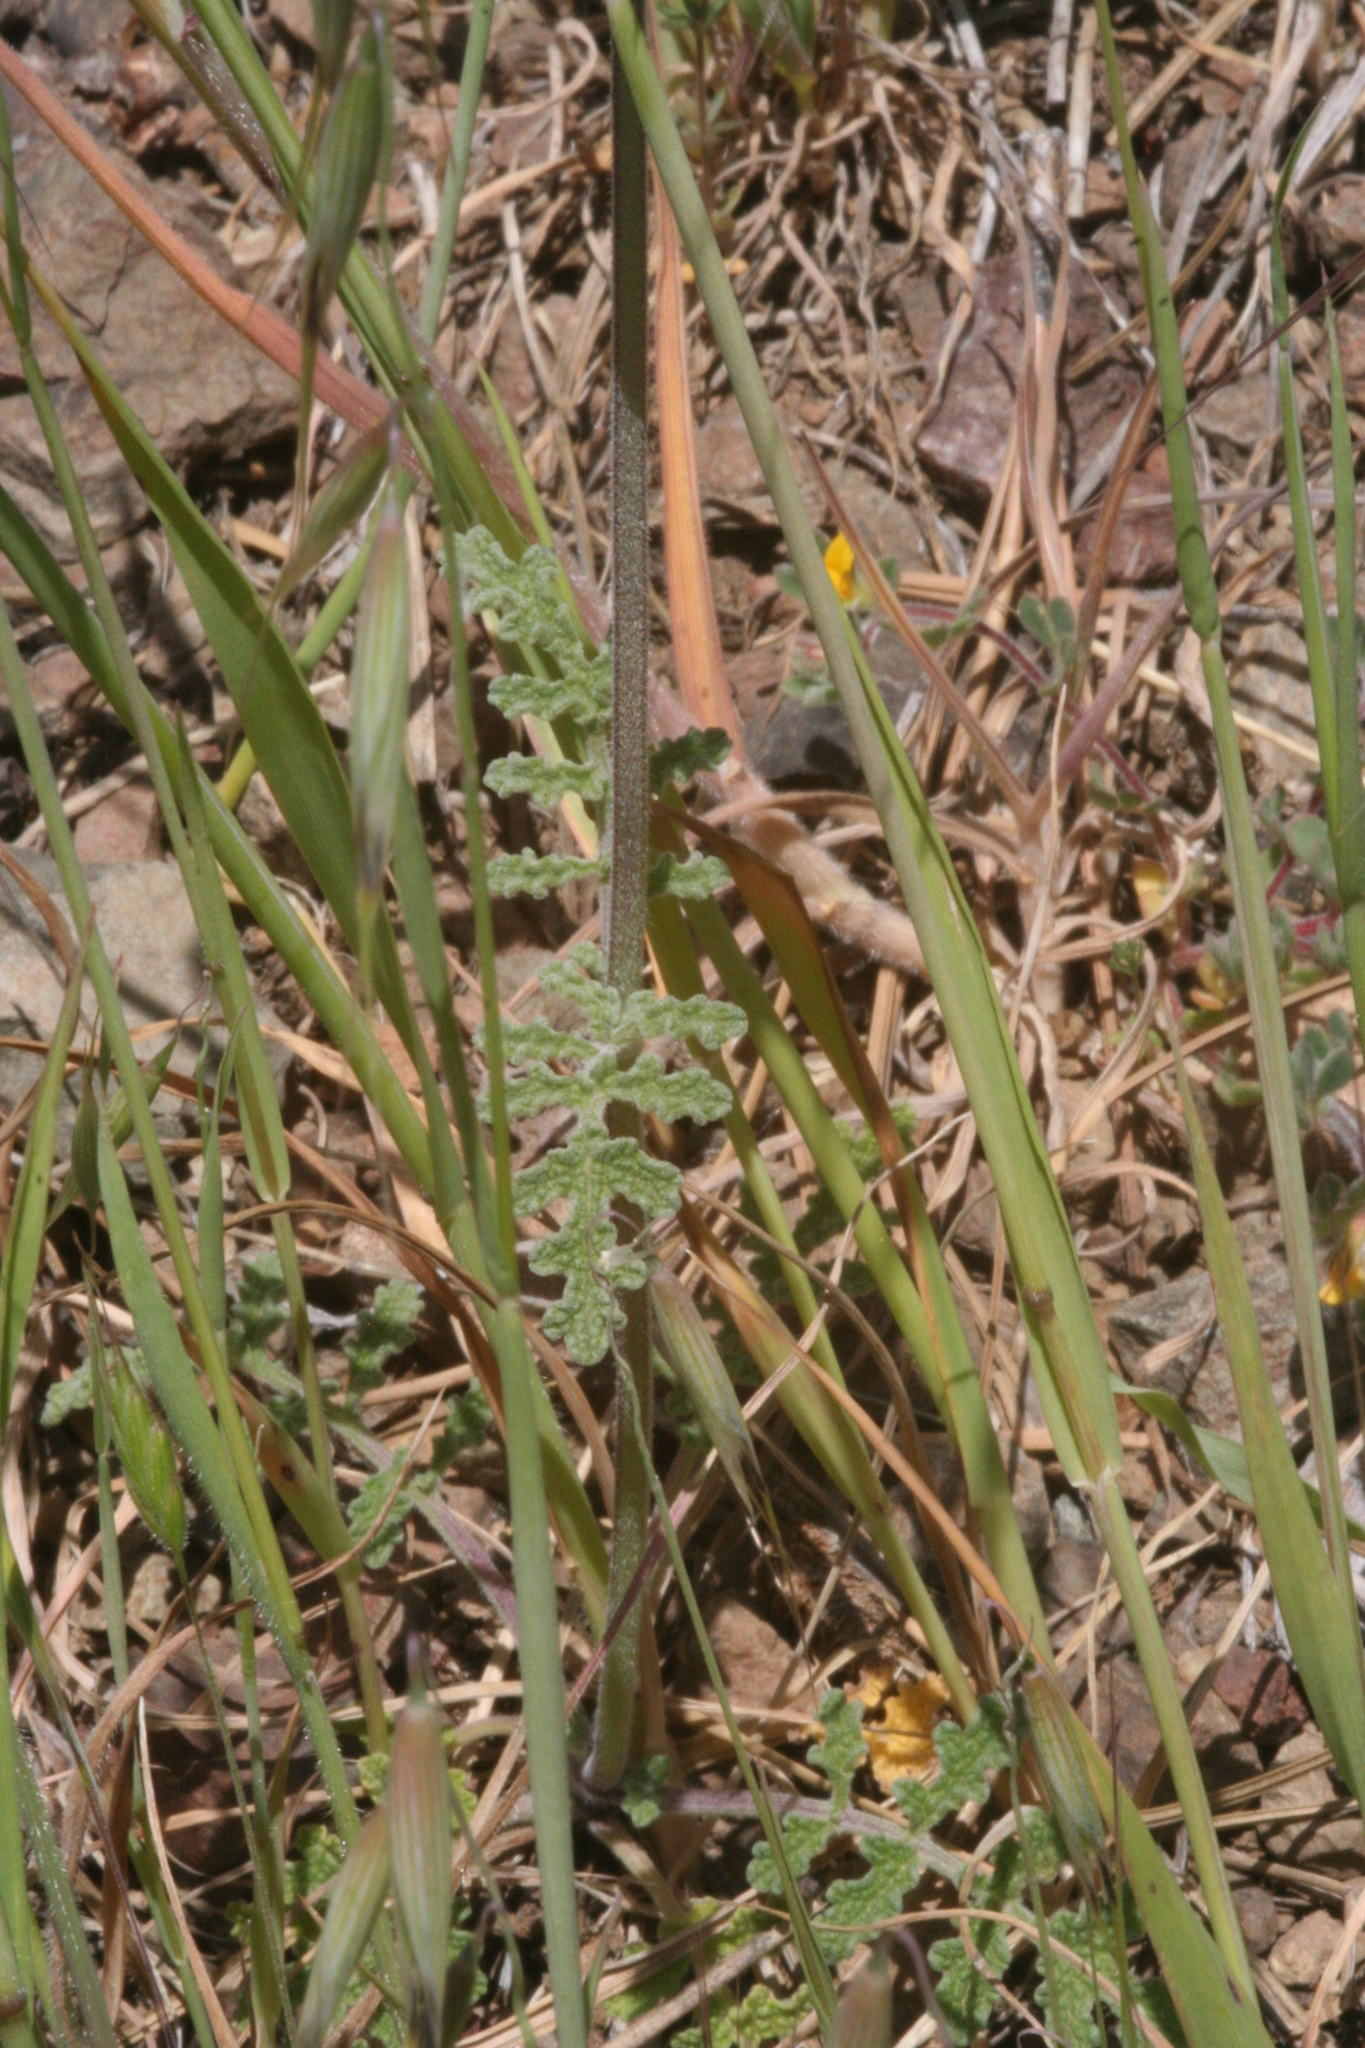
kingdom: Plantae
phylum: Tracheophyta
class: Magnoliopsida
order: Lamiales
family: Lamiaceae
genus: Salvia
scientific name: Salvia columbariae
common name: Chia
